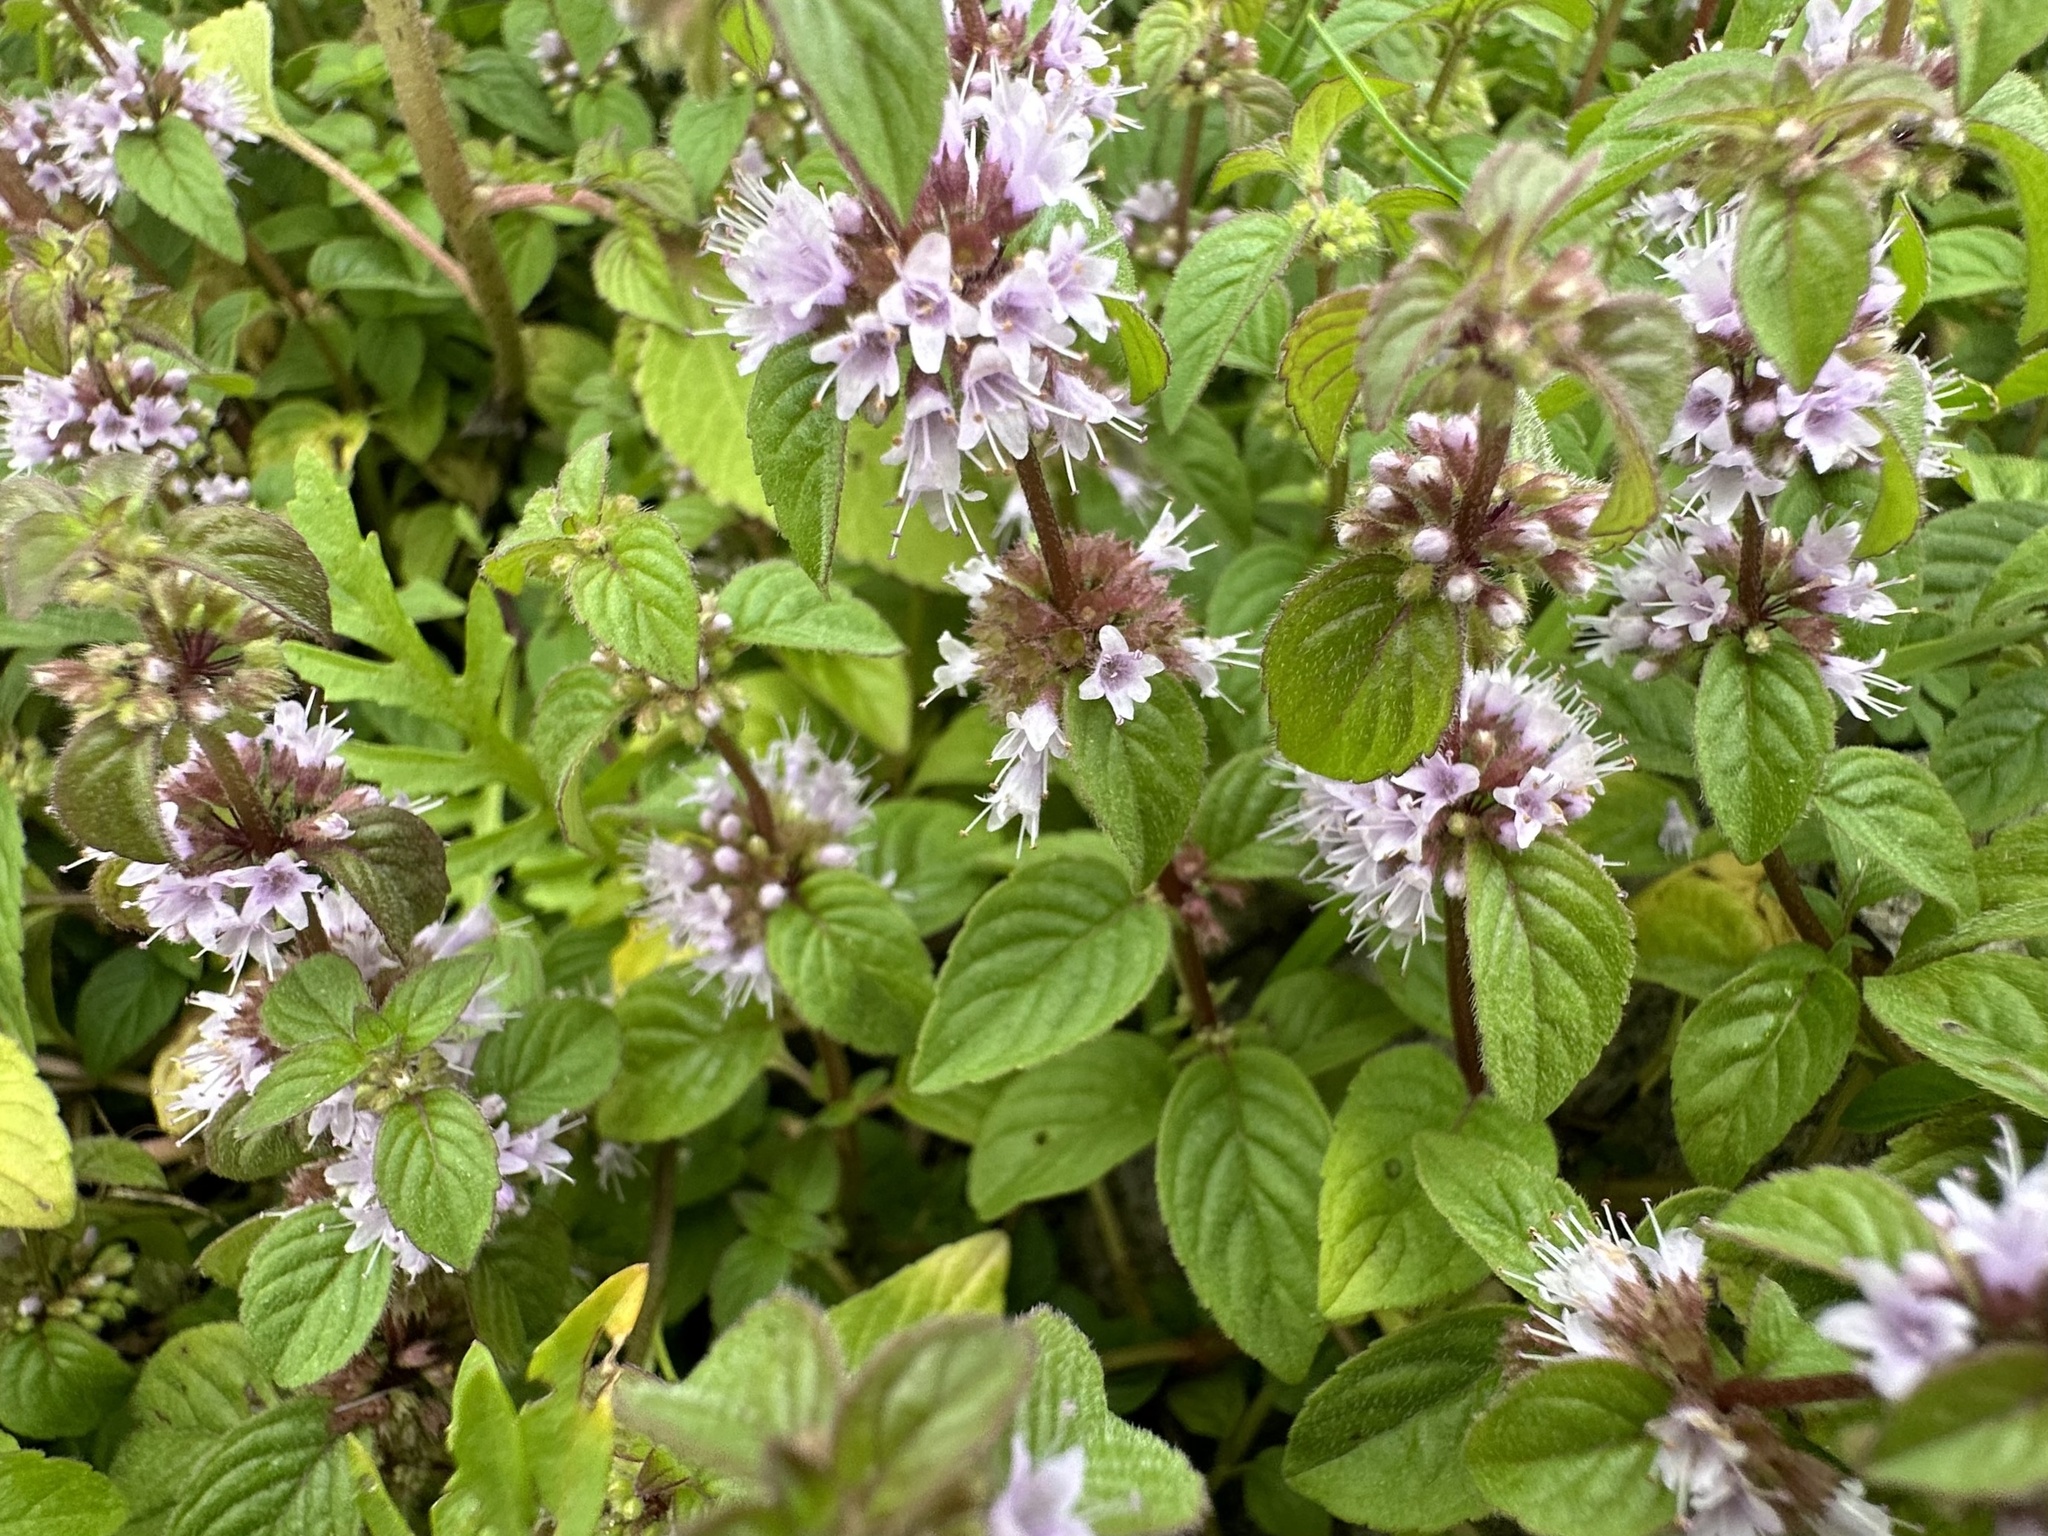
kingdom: Plantae
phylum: Tracheophyta
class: Magnoliopsida
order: Lamiales
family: Lamiaceae
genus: Mentha
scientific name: Mentha aquatica
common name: Water mint
